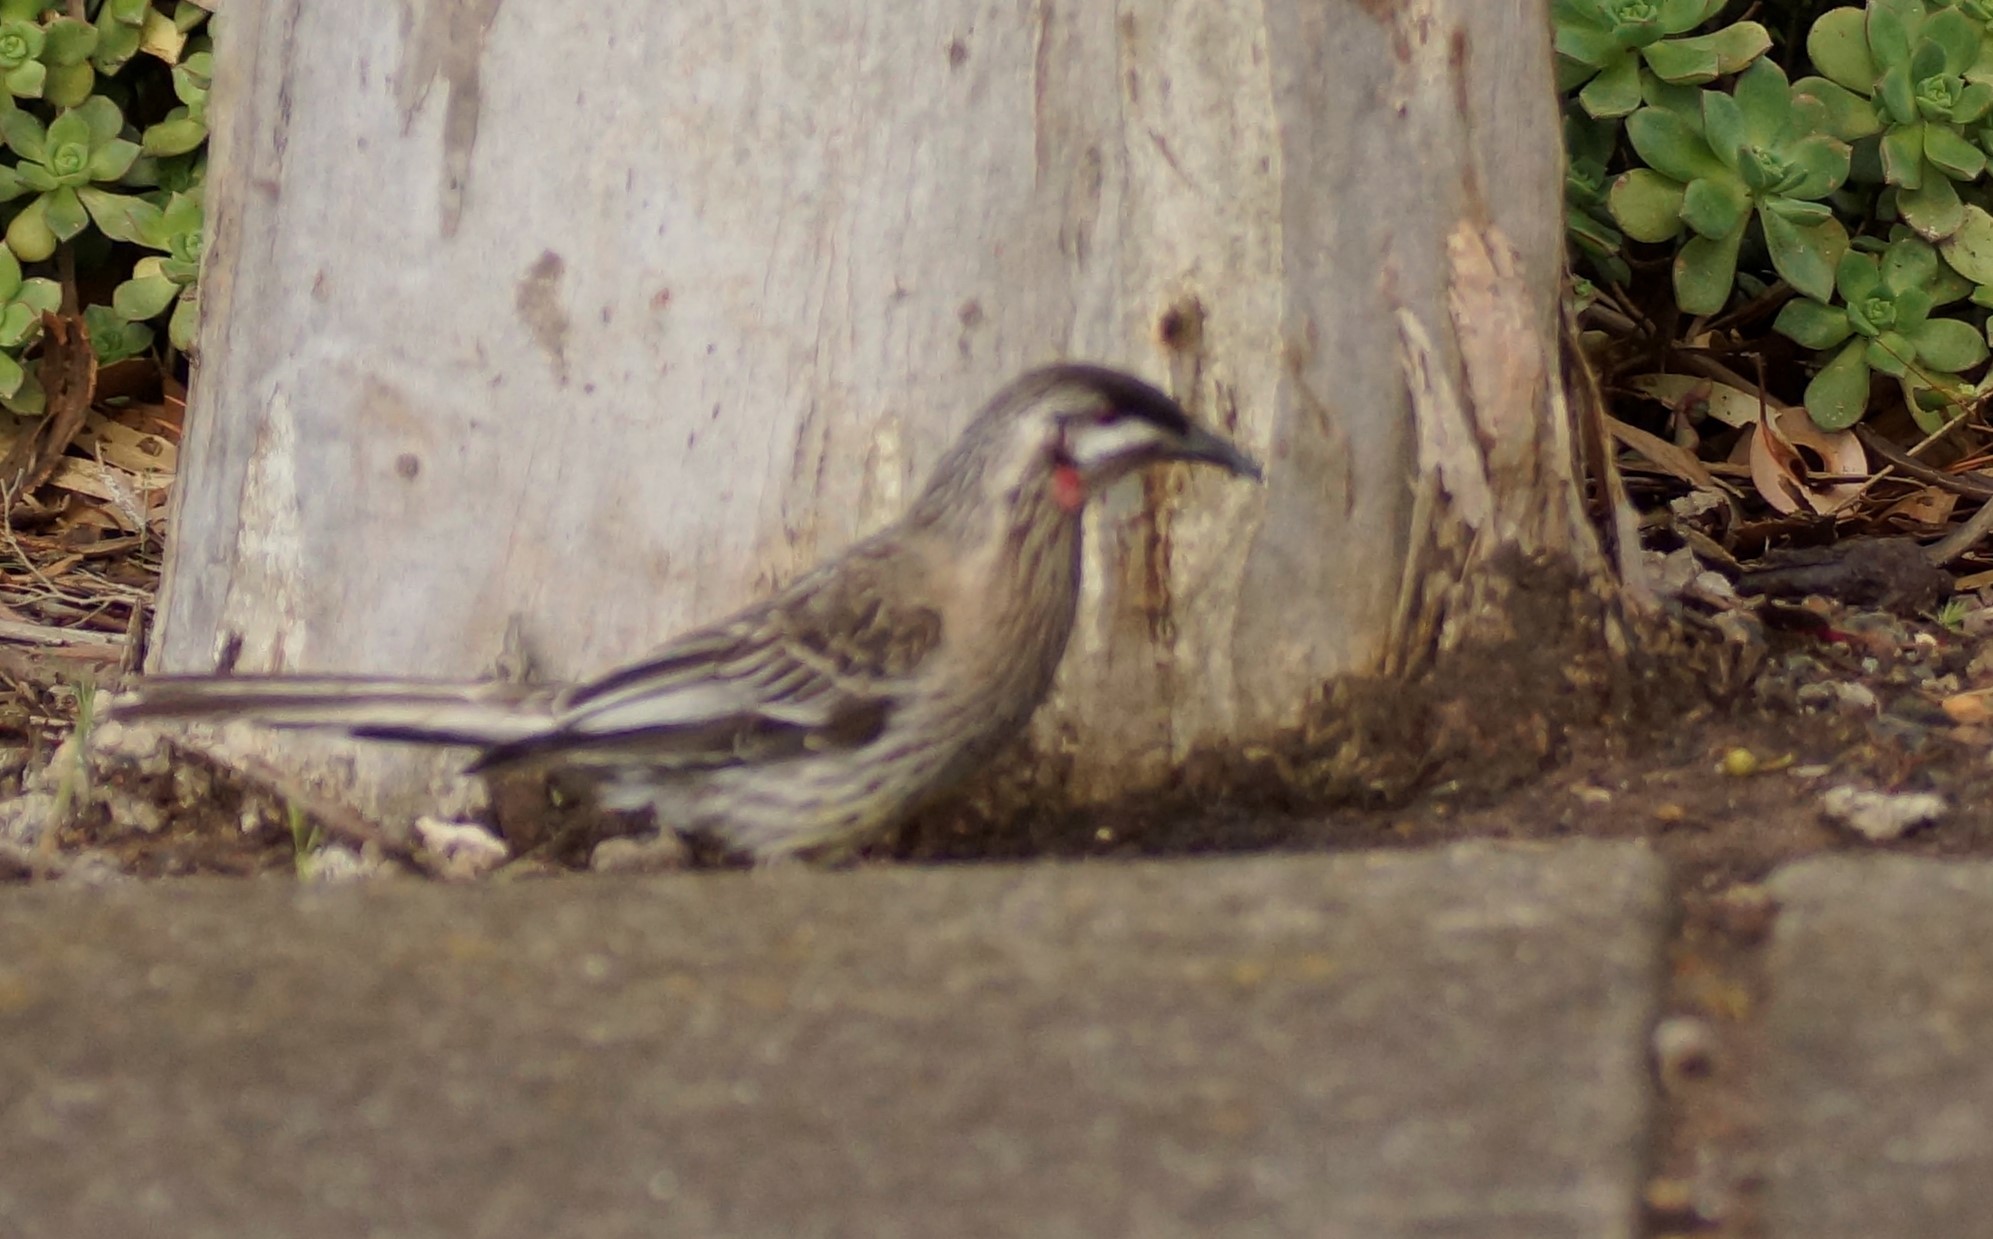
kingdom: Animalia
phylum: Chordata
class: Aves
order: Passeriformes
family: Meliphagidae
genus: Anthochaera
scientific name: Anthochaera carunculata
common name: Red wattlebird
